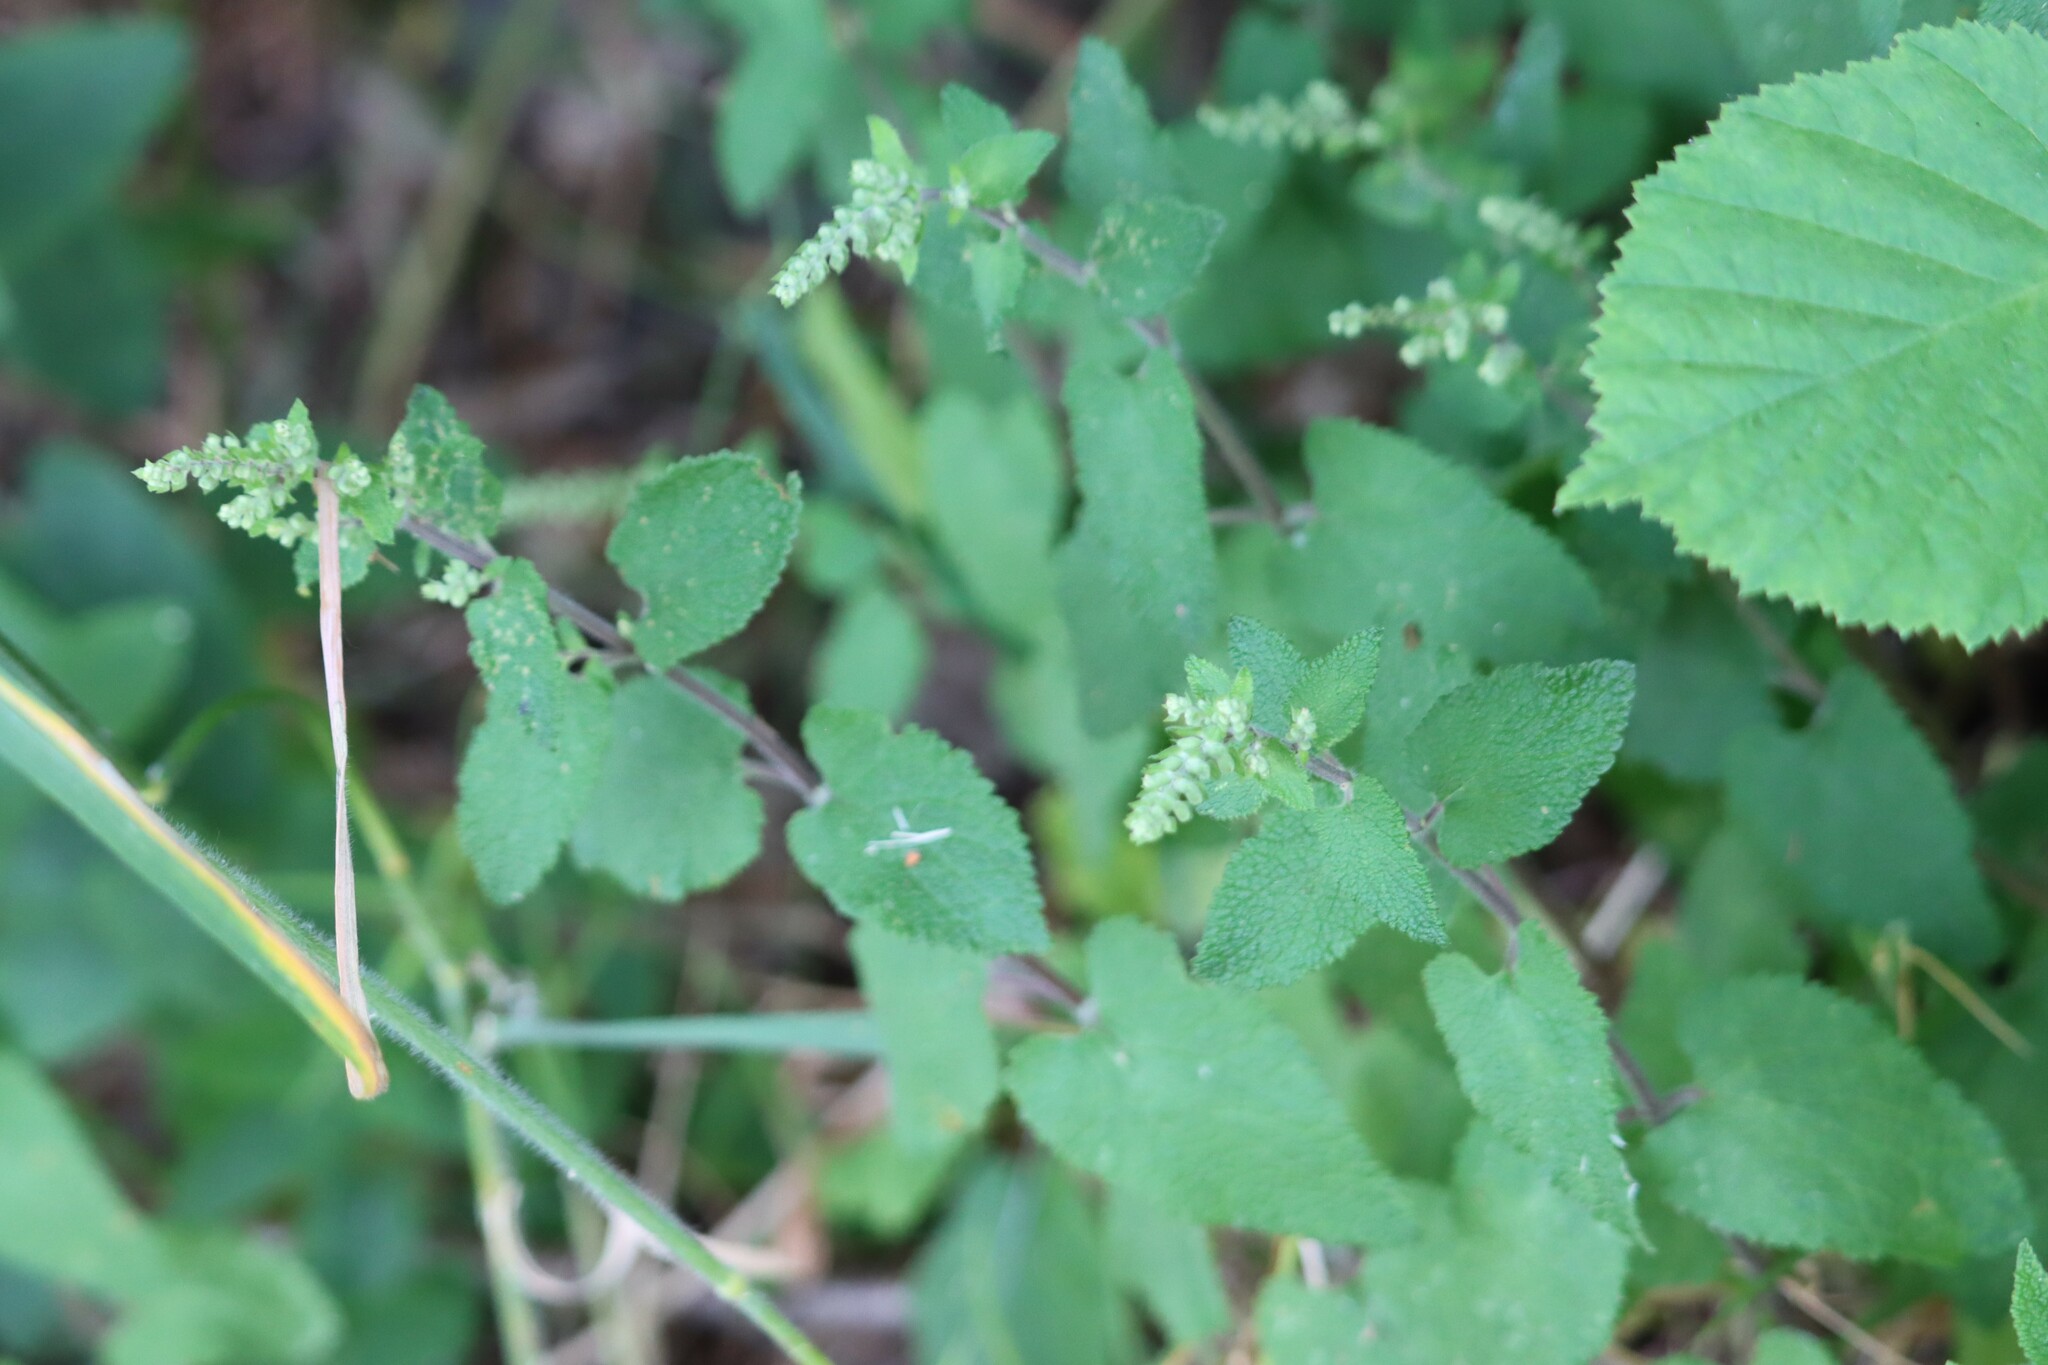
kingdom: Plantae
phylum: Tracheophyta
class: Magnoliopsida
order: Lamiales
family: Lamiaceae
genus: Teucrium
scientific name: Teucrium scorodonia
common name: Woodland germander
